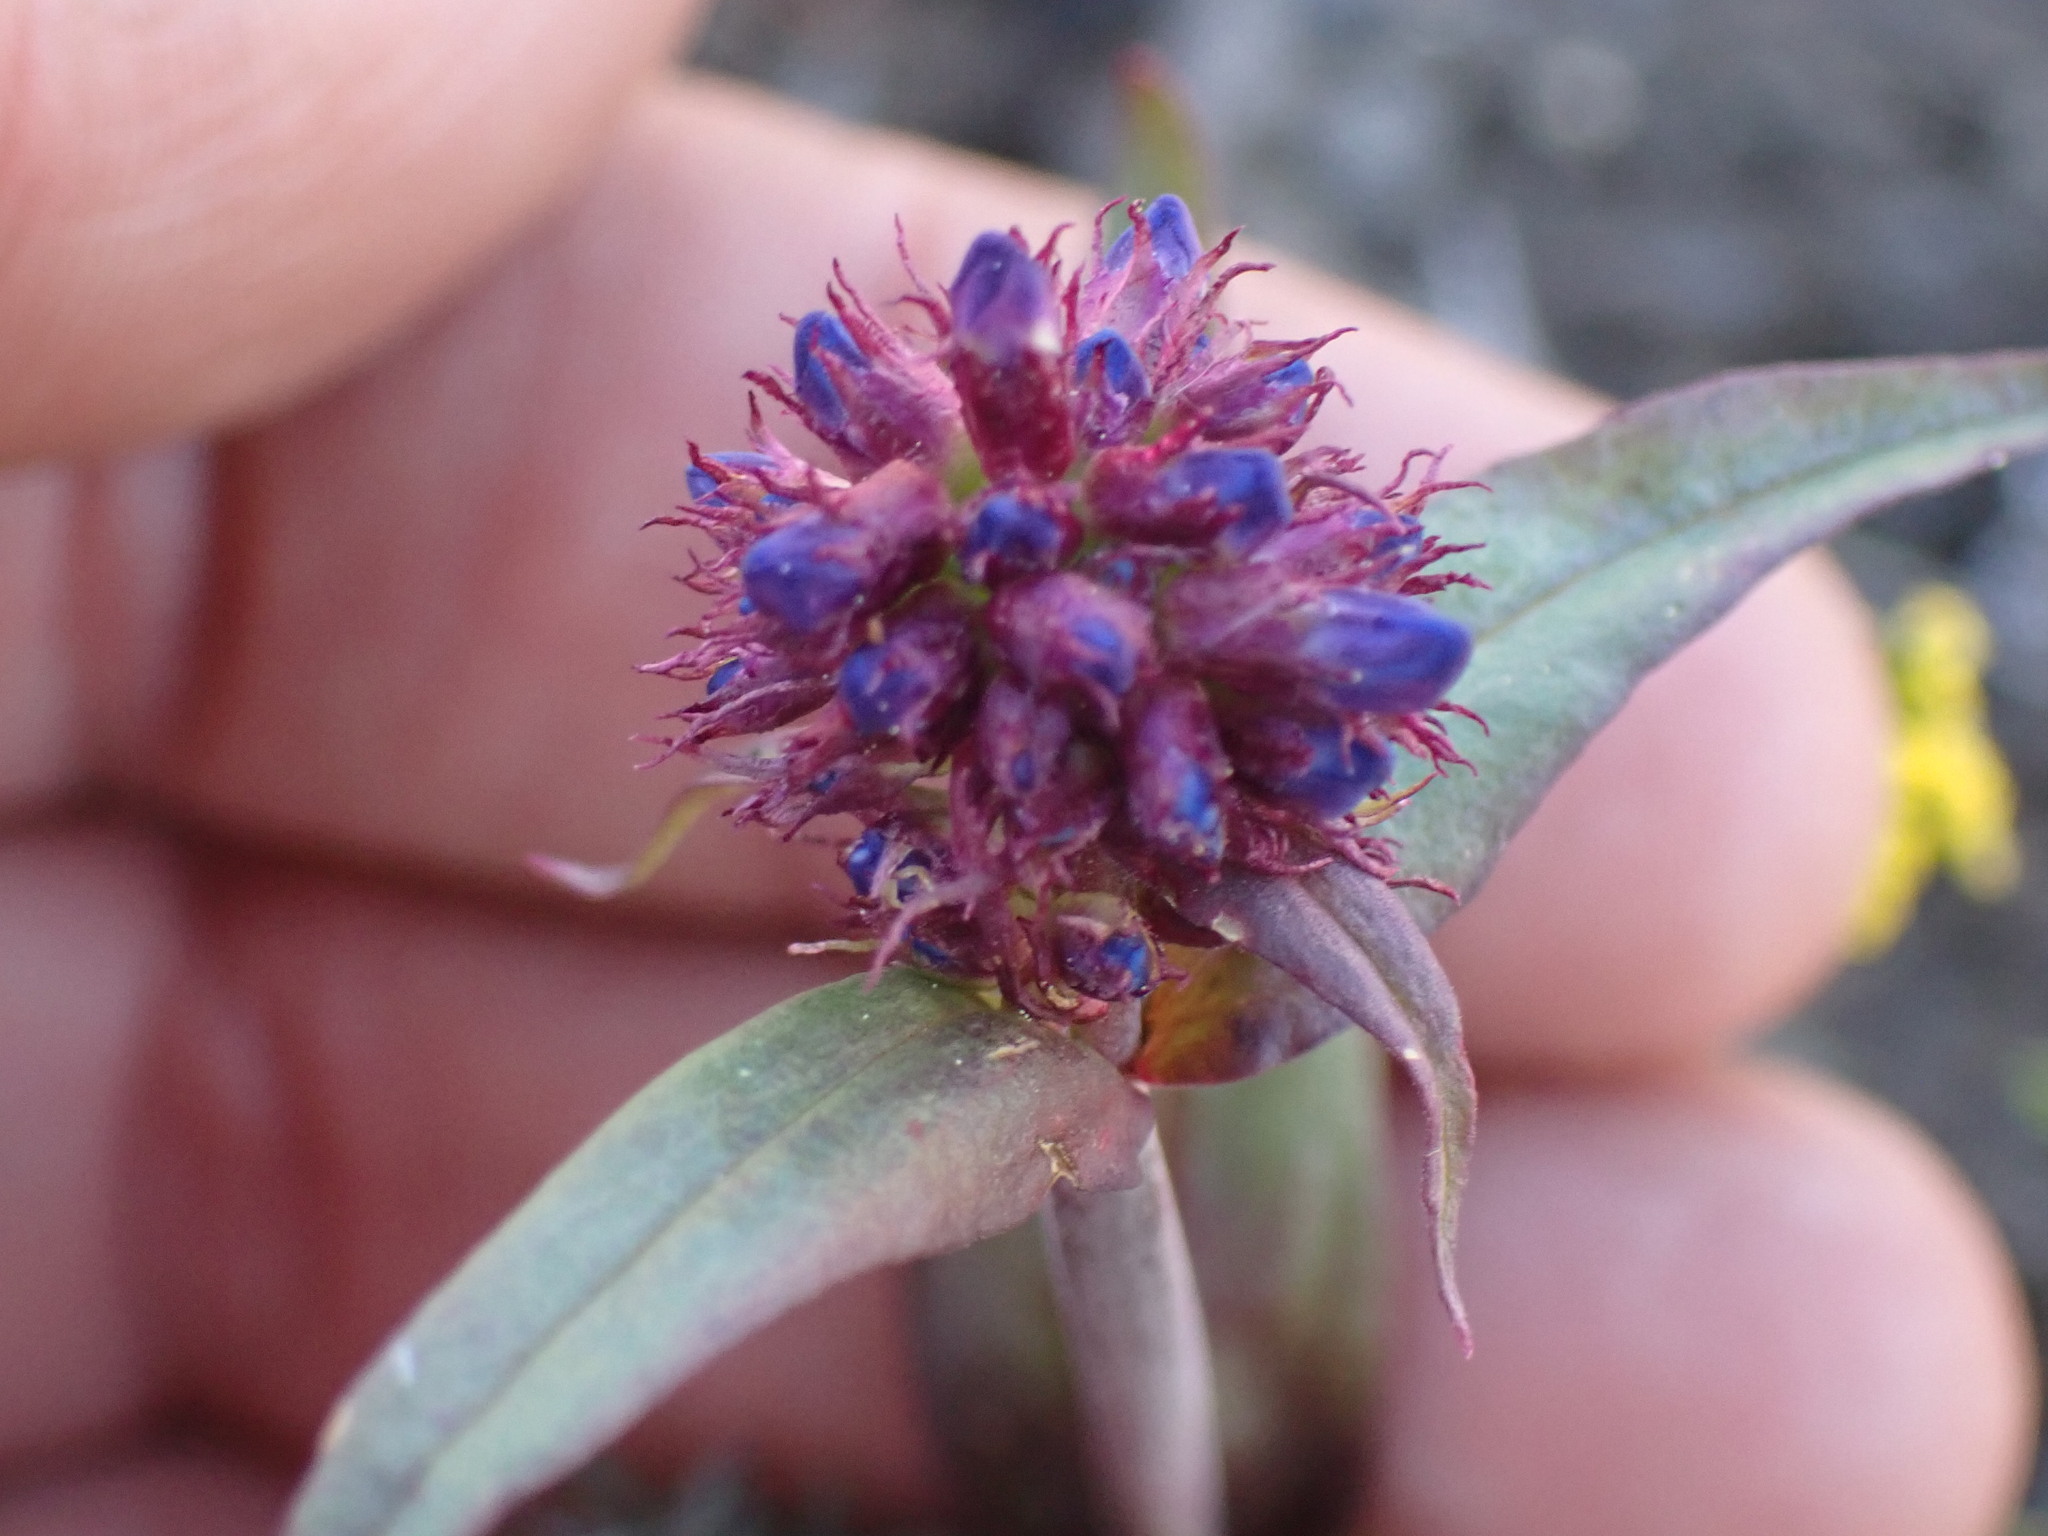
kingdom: Plantae
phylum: Tracheophyta
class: Magnoliopsida
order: Lamiales
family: Plantaginaceae
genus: Penstemon
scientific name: Penstemon procerus
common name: Small-flower penstemon
